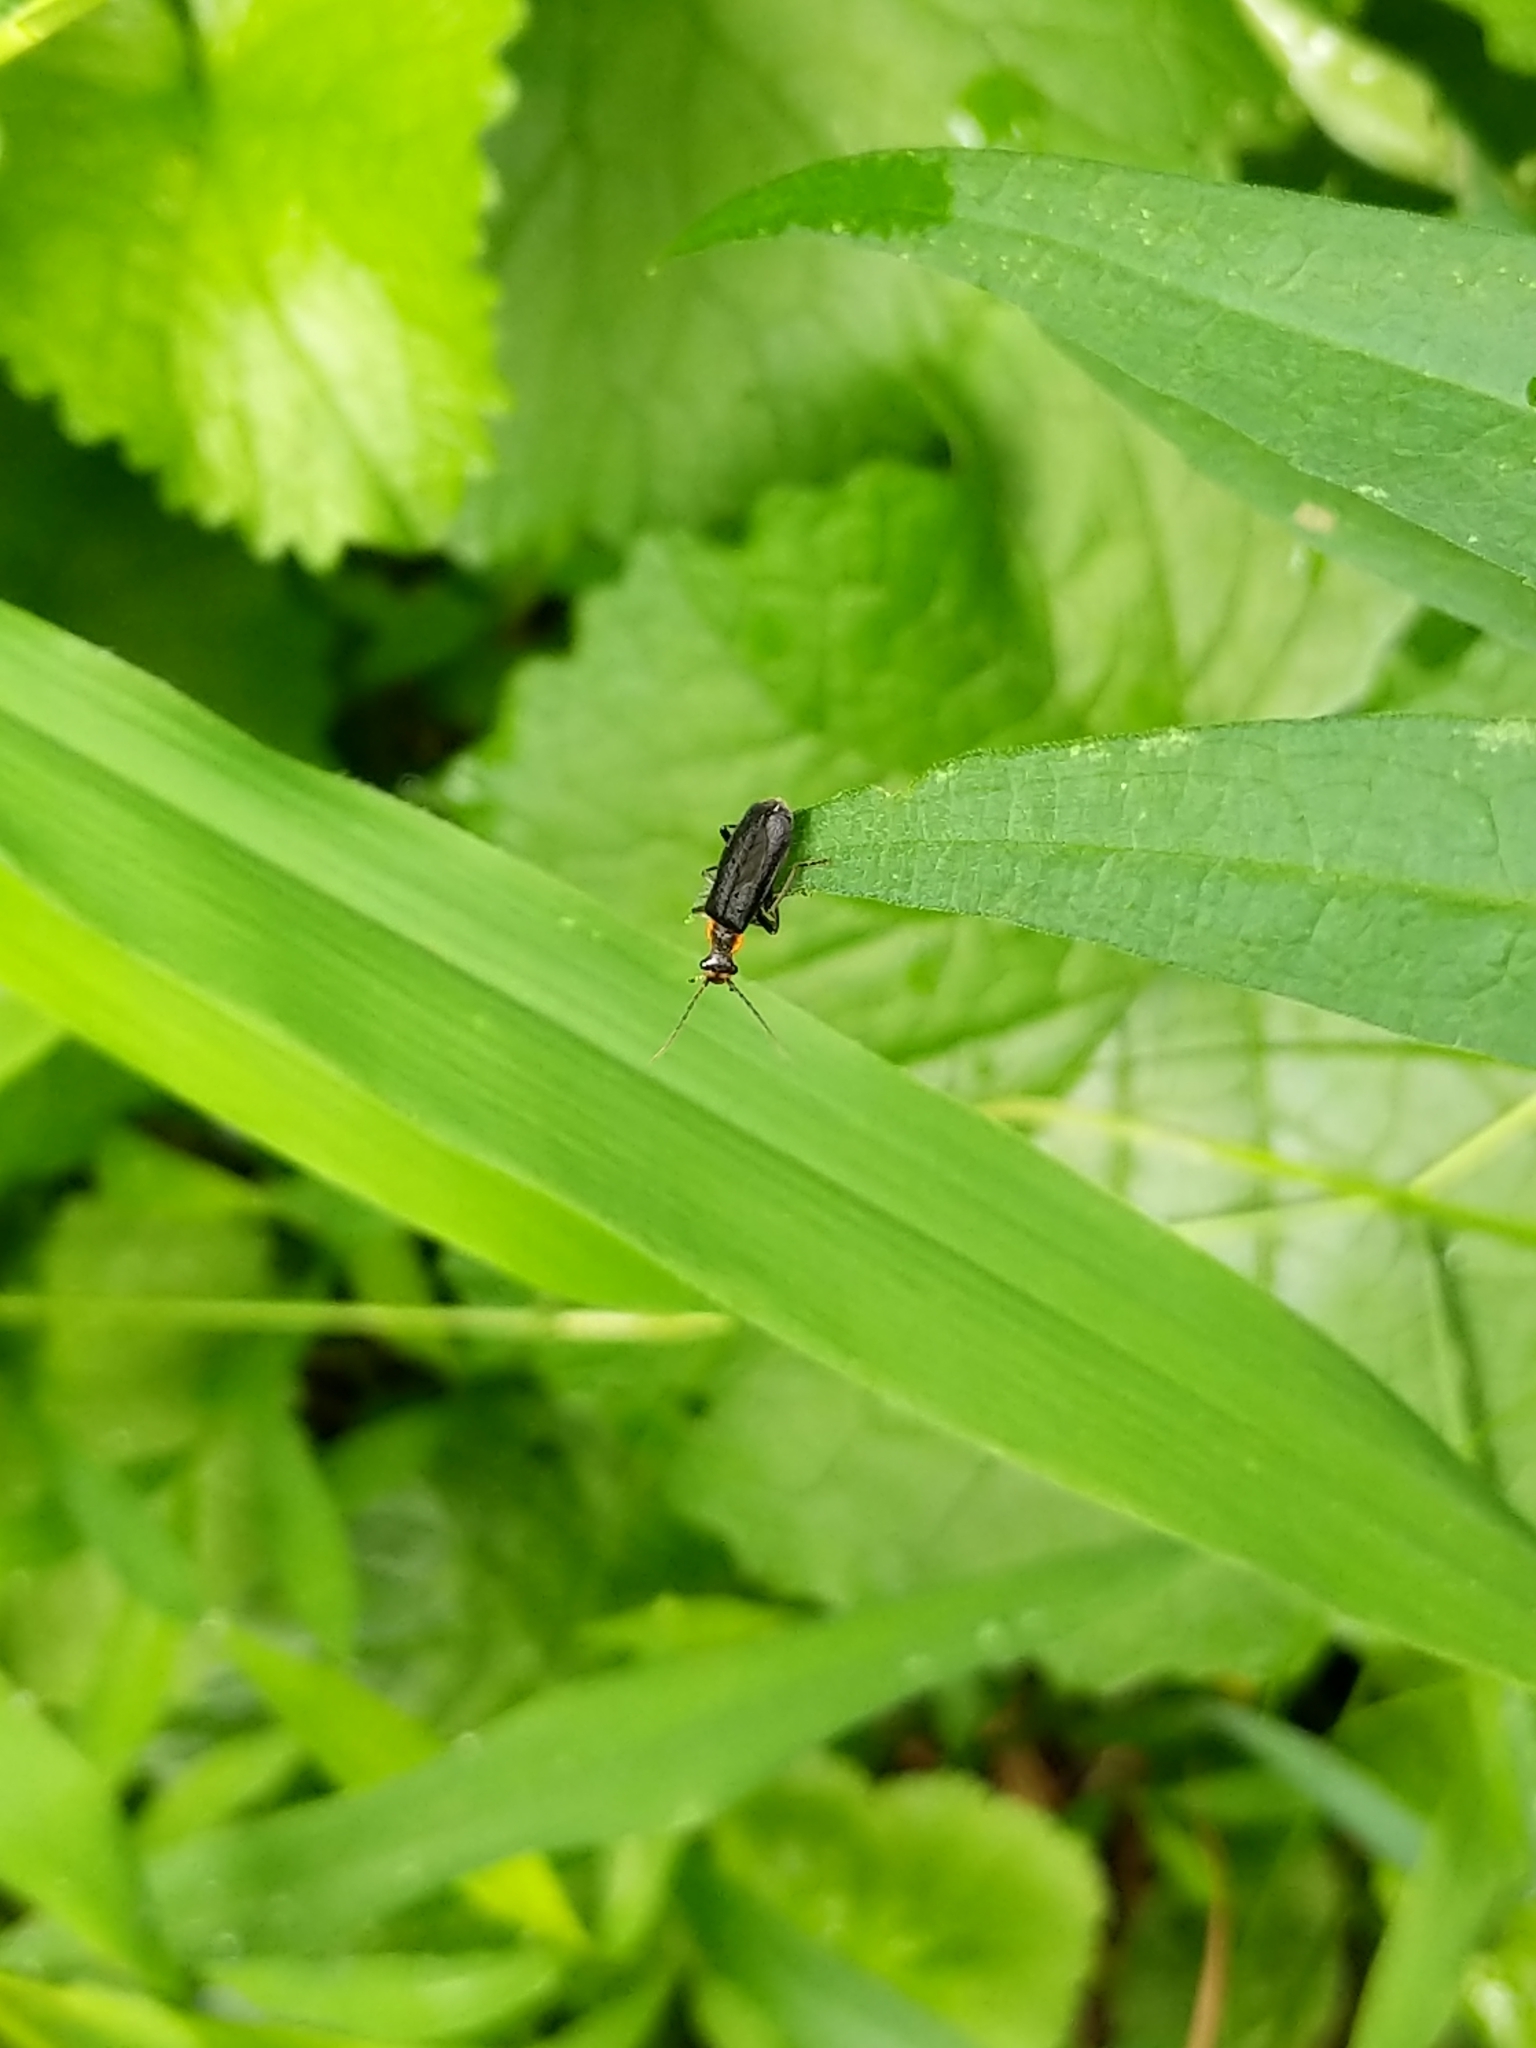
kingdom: Animalia
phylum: Arthropoda
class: Insecta
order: Coleoptera
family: Cantharidae
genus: Podabrus
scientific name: Podabrus rugosulus
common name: Wrinkled soldier beetle
